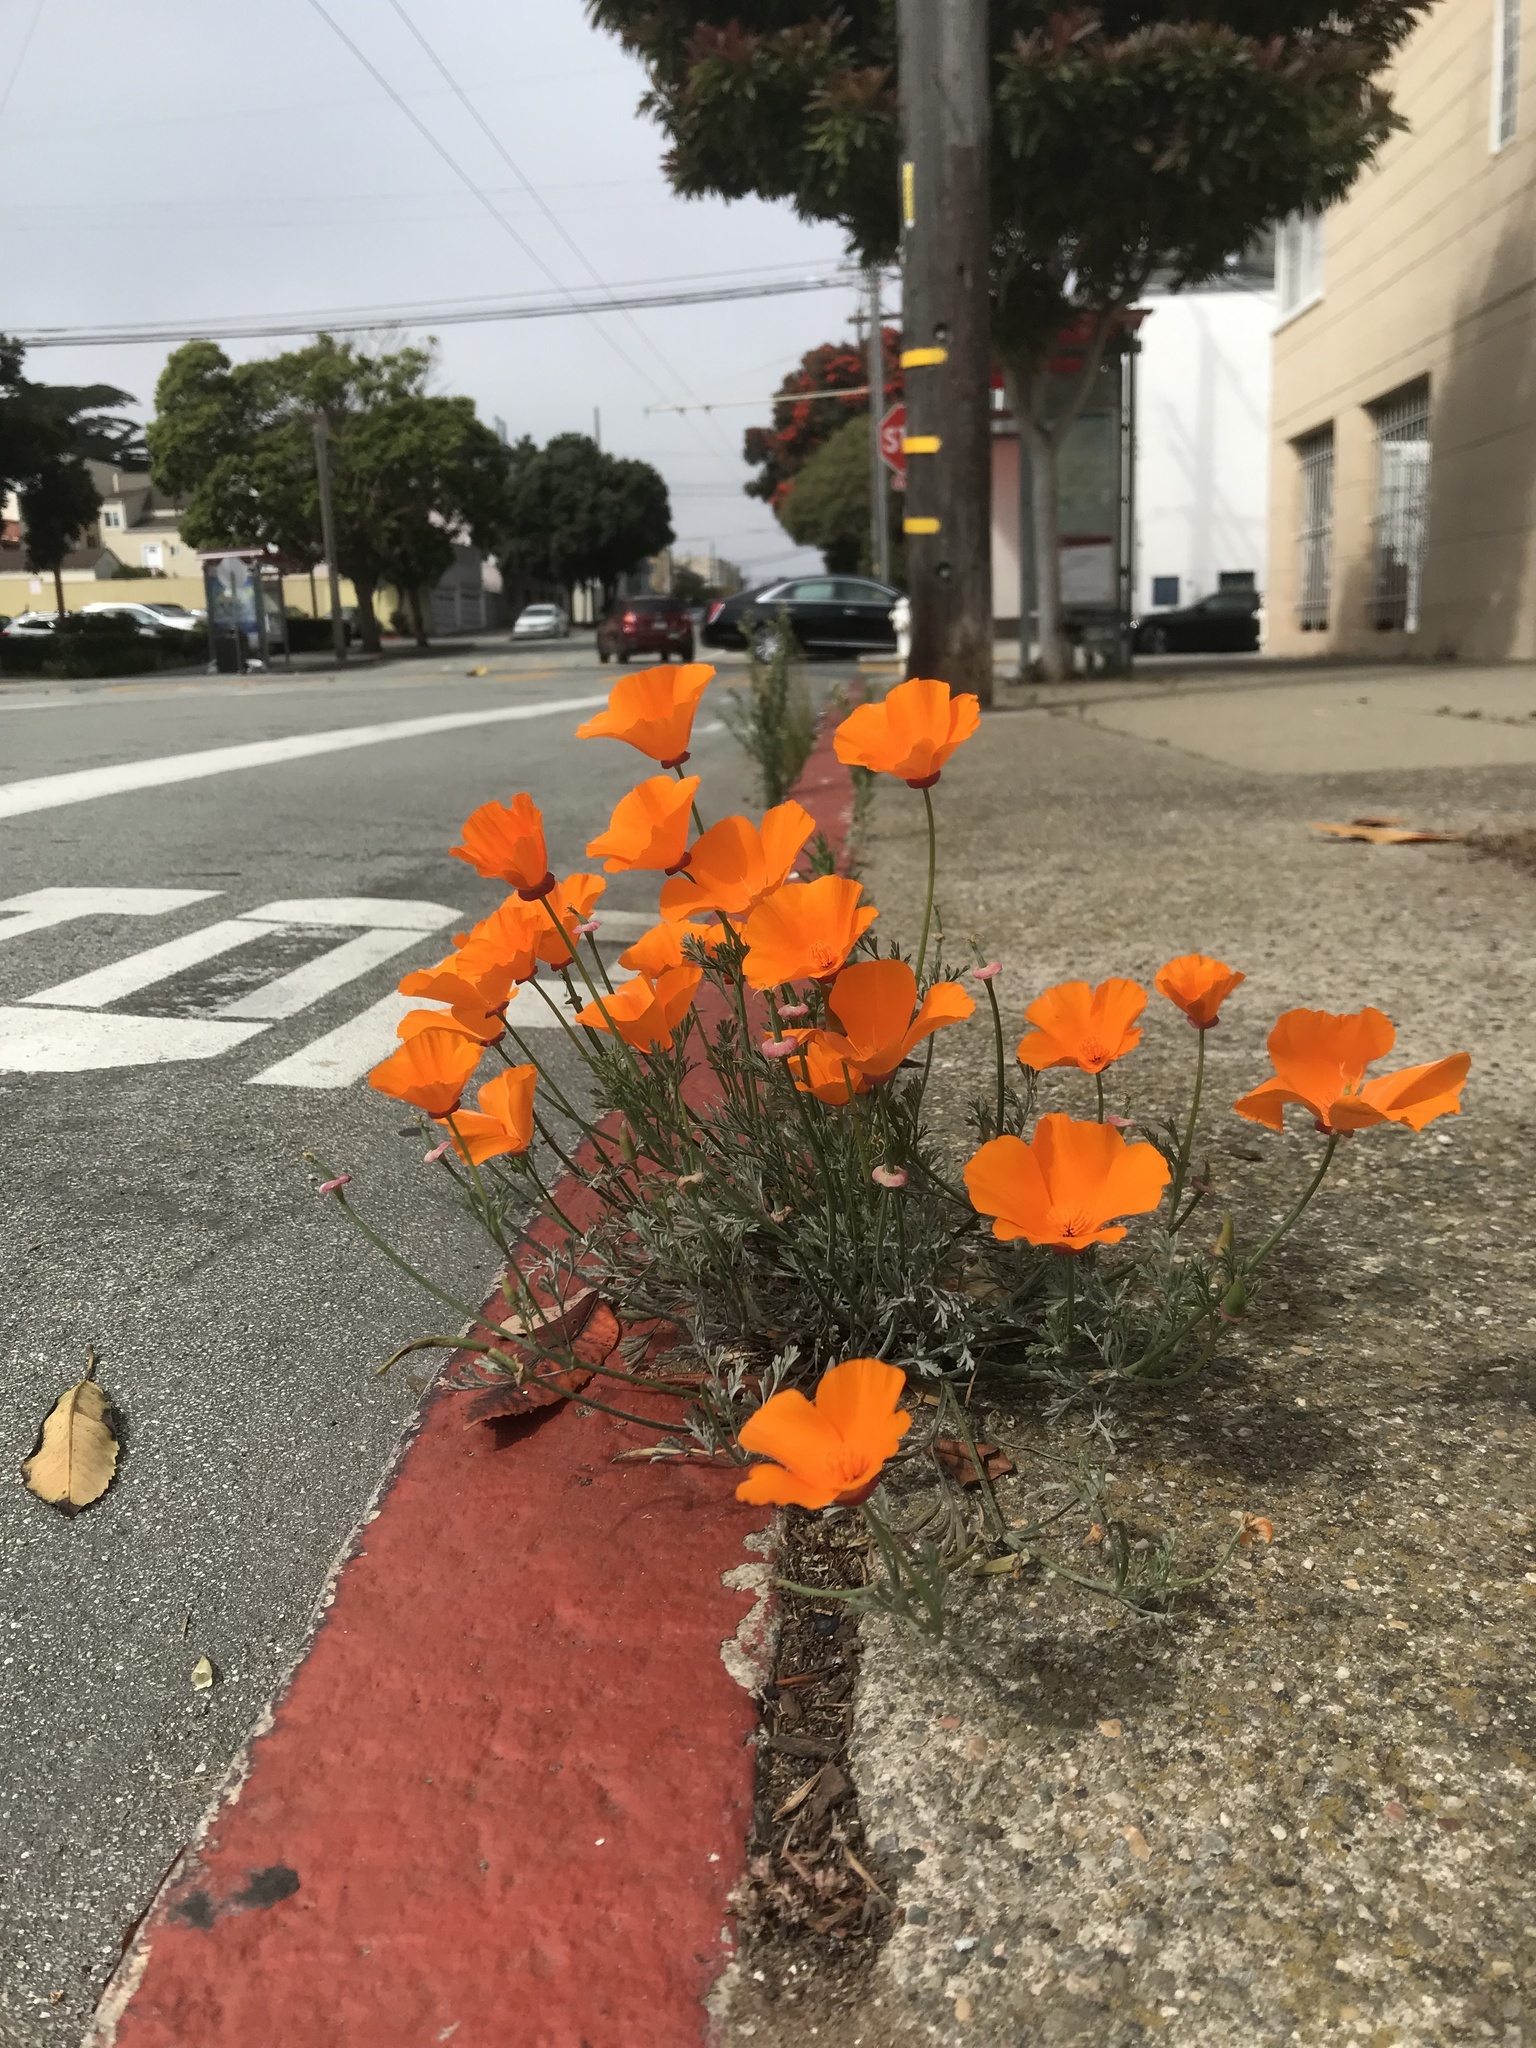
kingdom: Plantae
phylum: Tracheophyta
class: Magnoliopsida
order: Ranunculales
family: Papaveraceae
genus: Eschscholzia
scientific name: Eschscholzia californica
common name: California poppy
